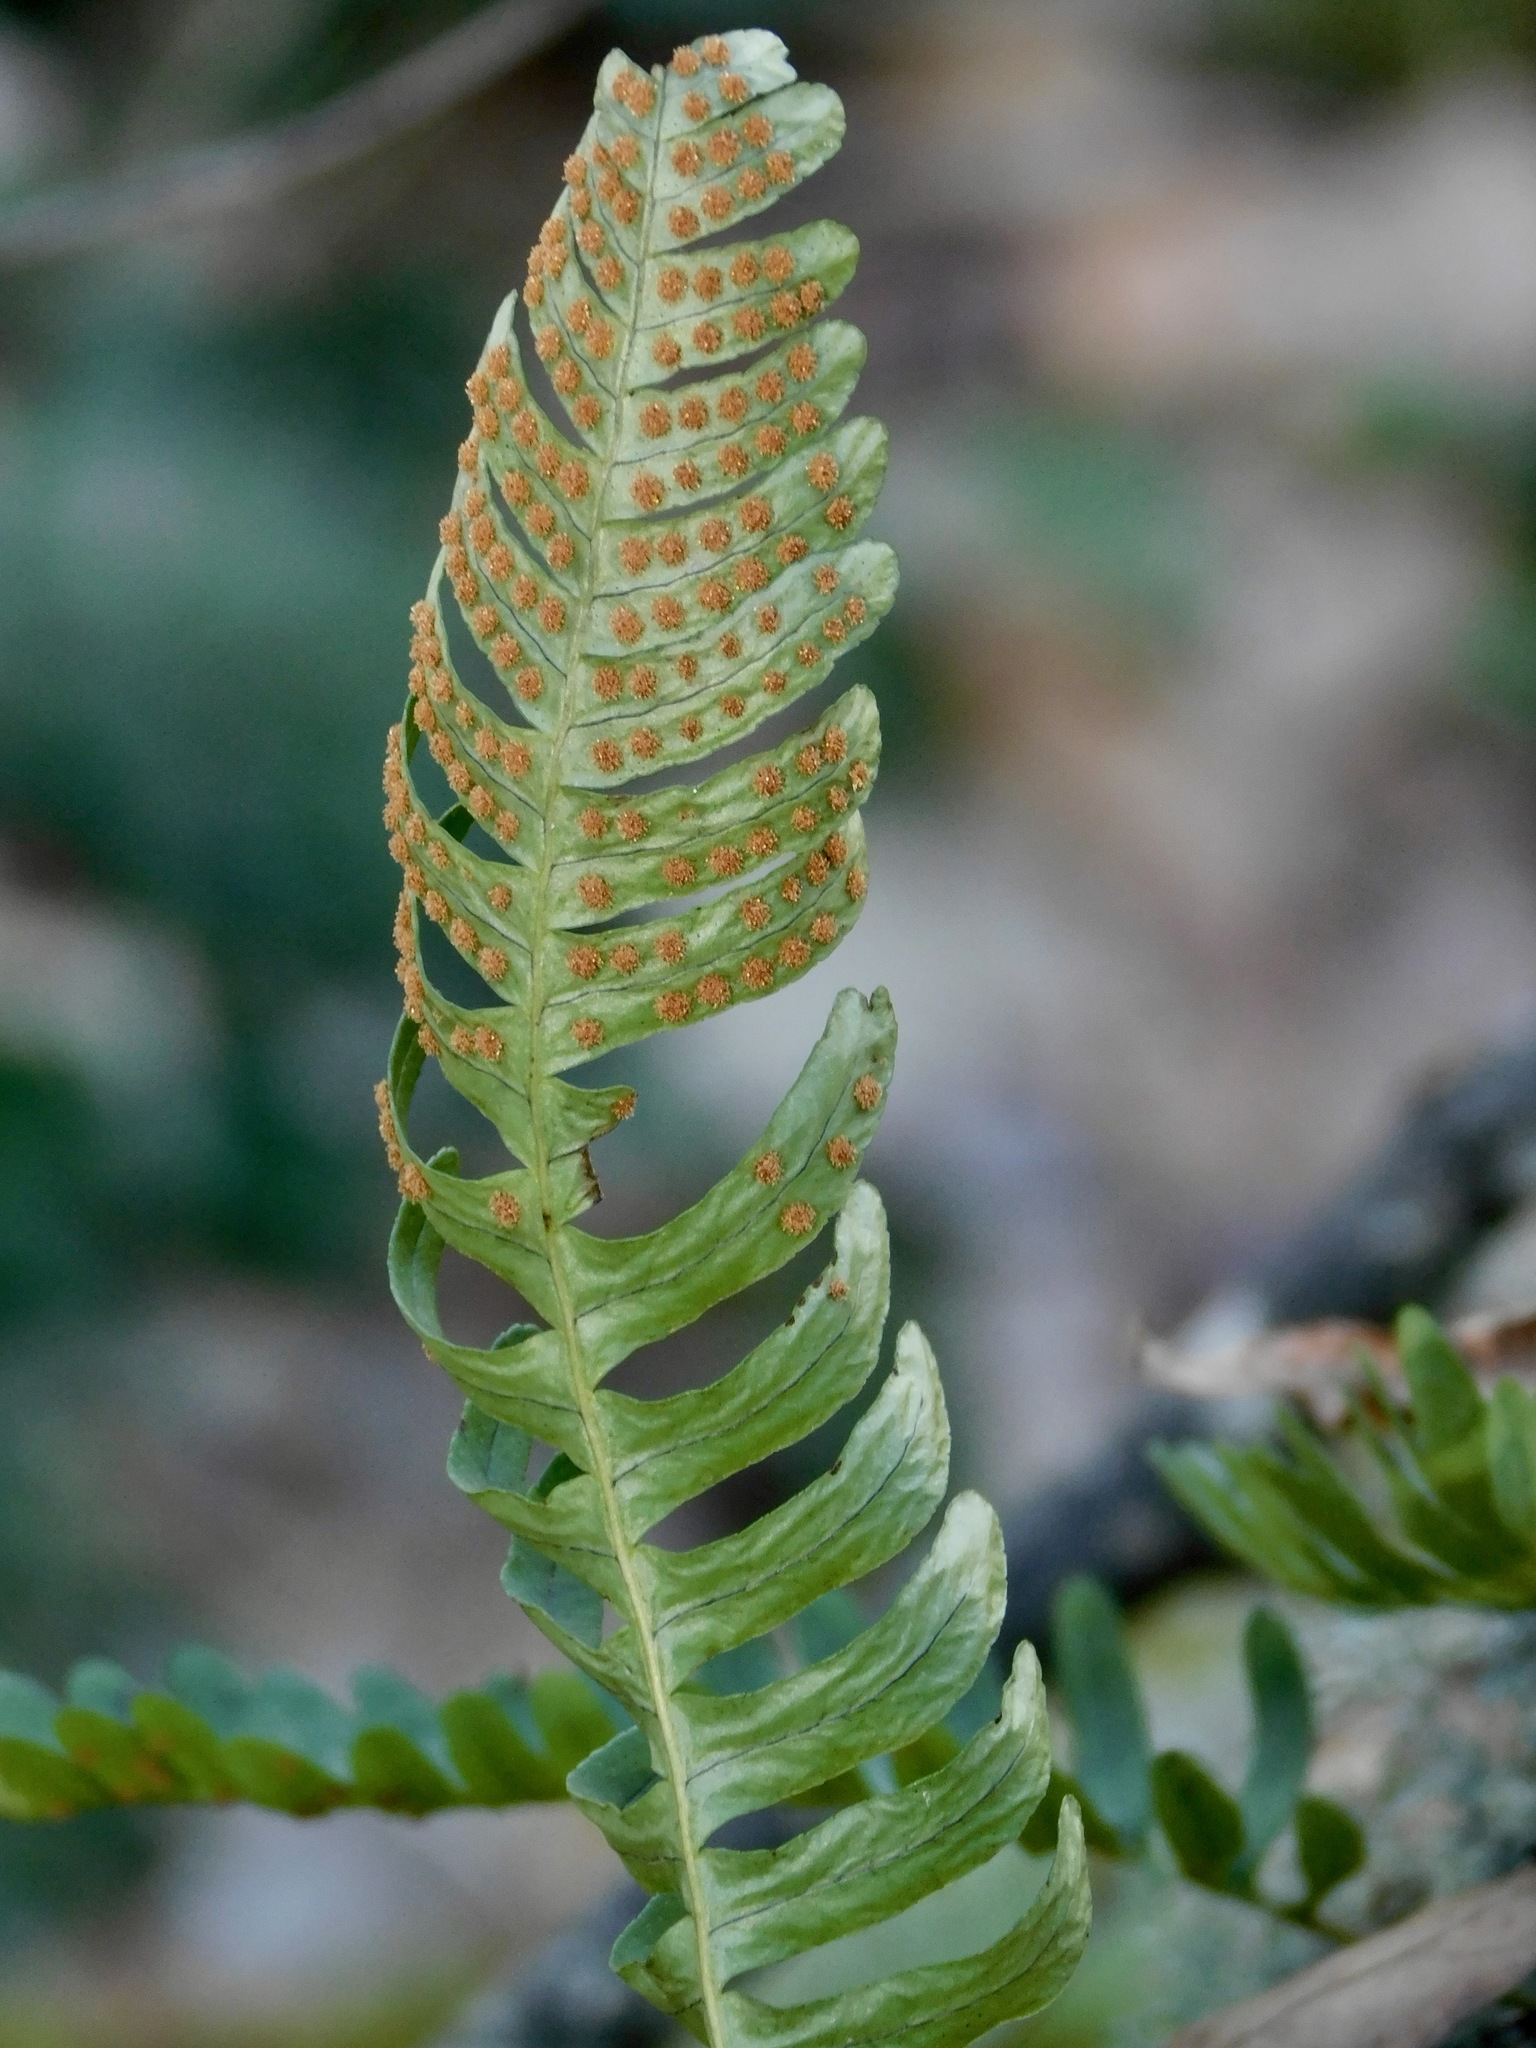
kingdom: Plantae
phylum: Tracheophyta
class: Polypodiopsida
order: Polypodiales
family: Polypodiaceae
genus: Polypodium
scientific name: Polypodium virginianum
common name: American wall fern
